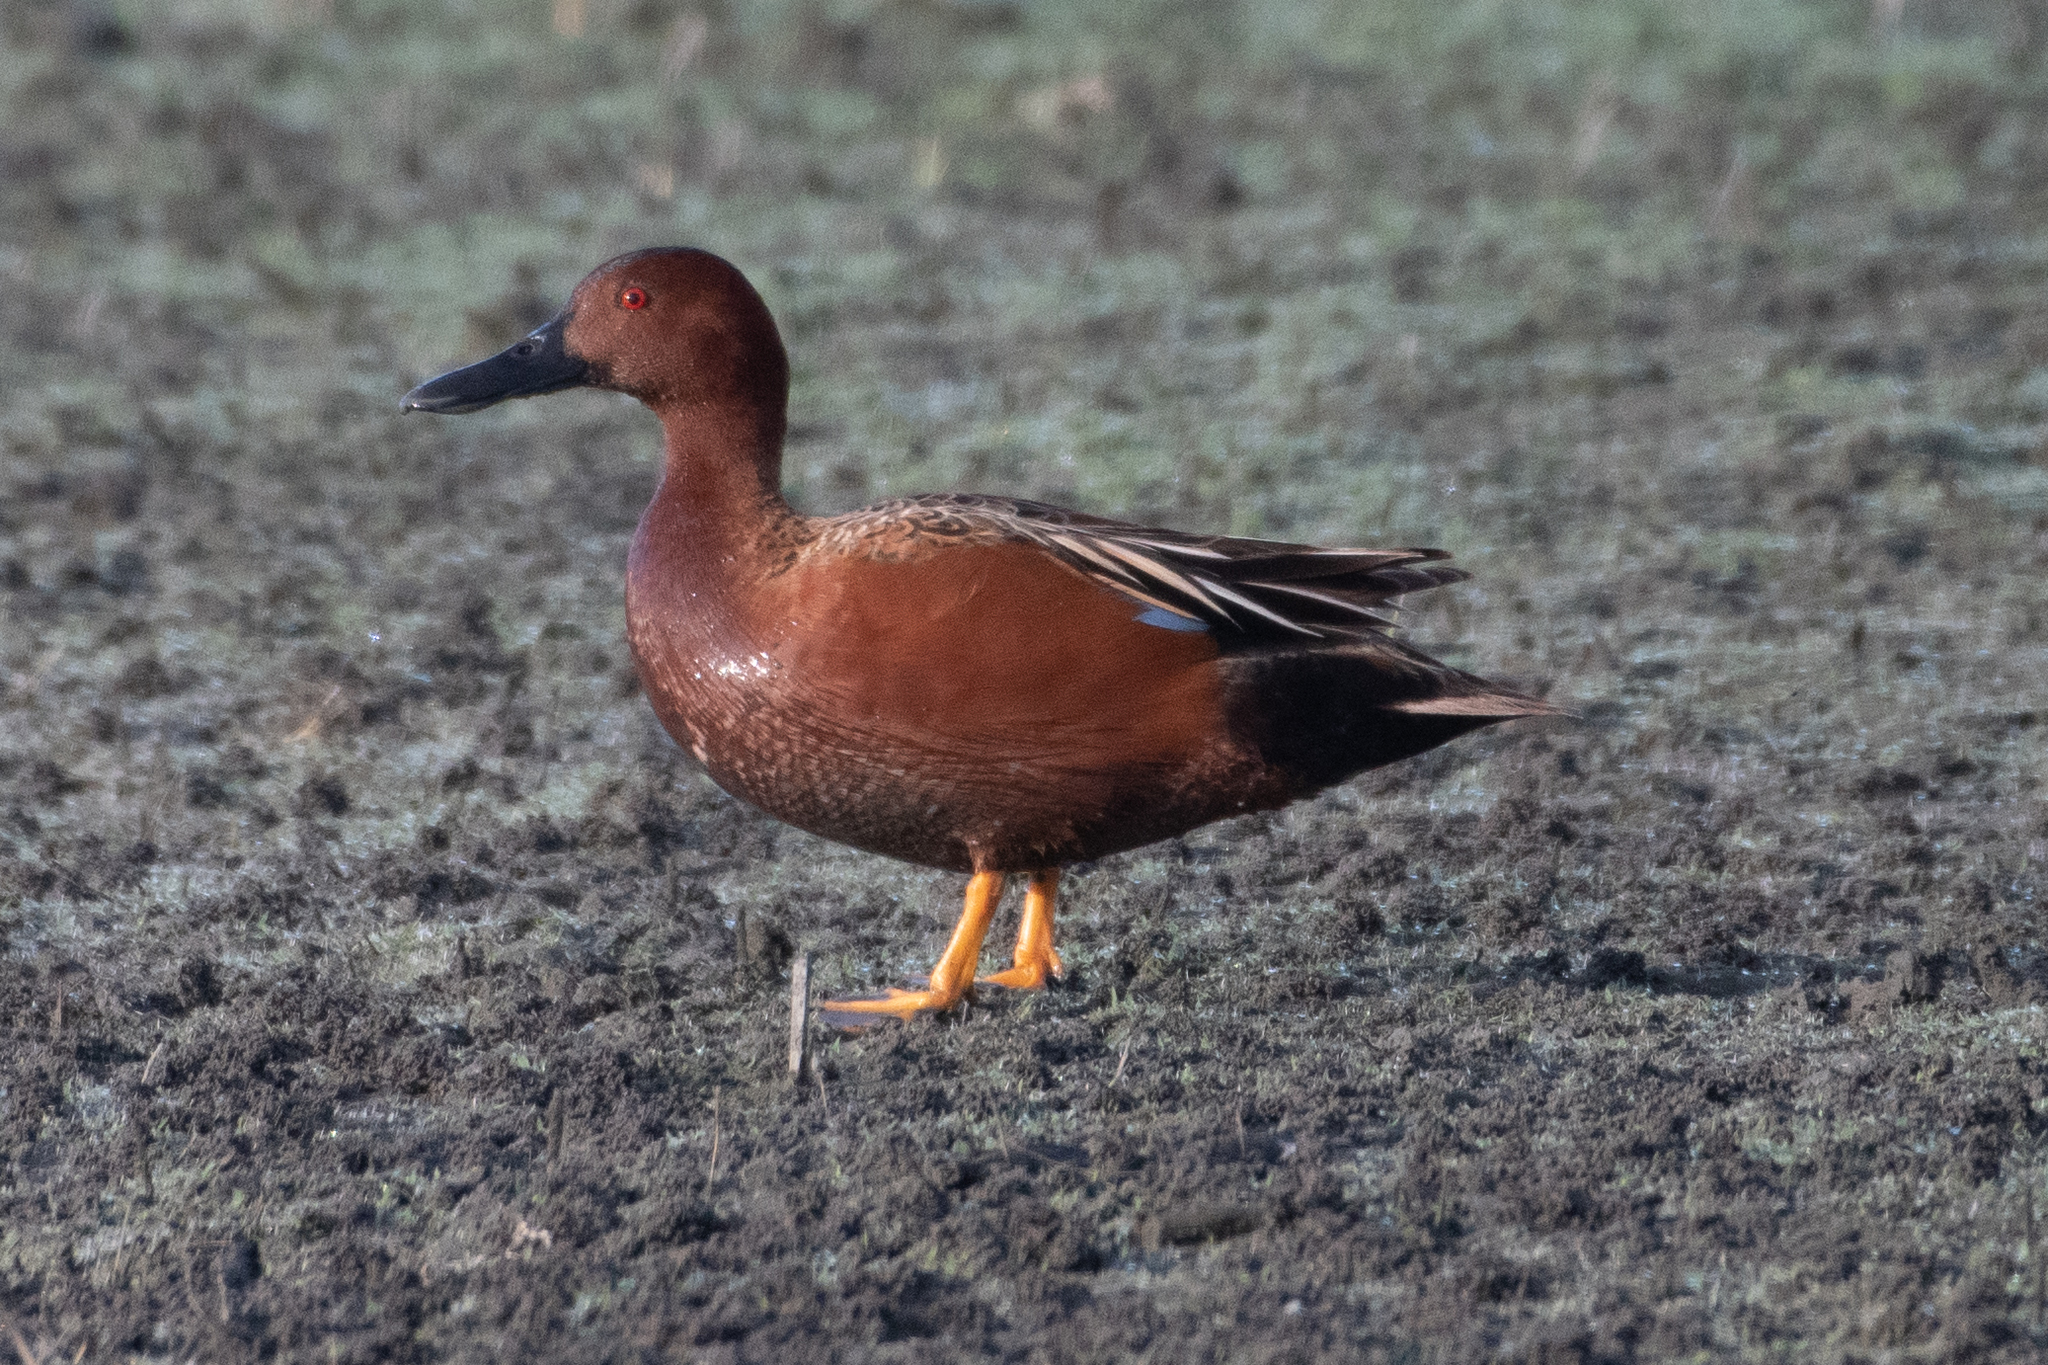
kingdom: Animalia
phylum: Chordata
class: Aves
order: Anseriformes
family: Anatidae
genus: Spatula
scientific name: Spatula cyanoptera
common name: Cinnamon teal
